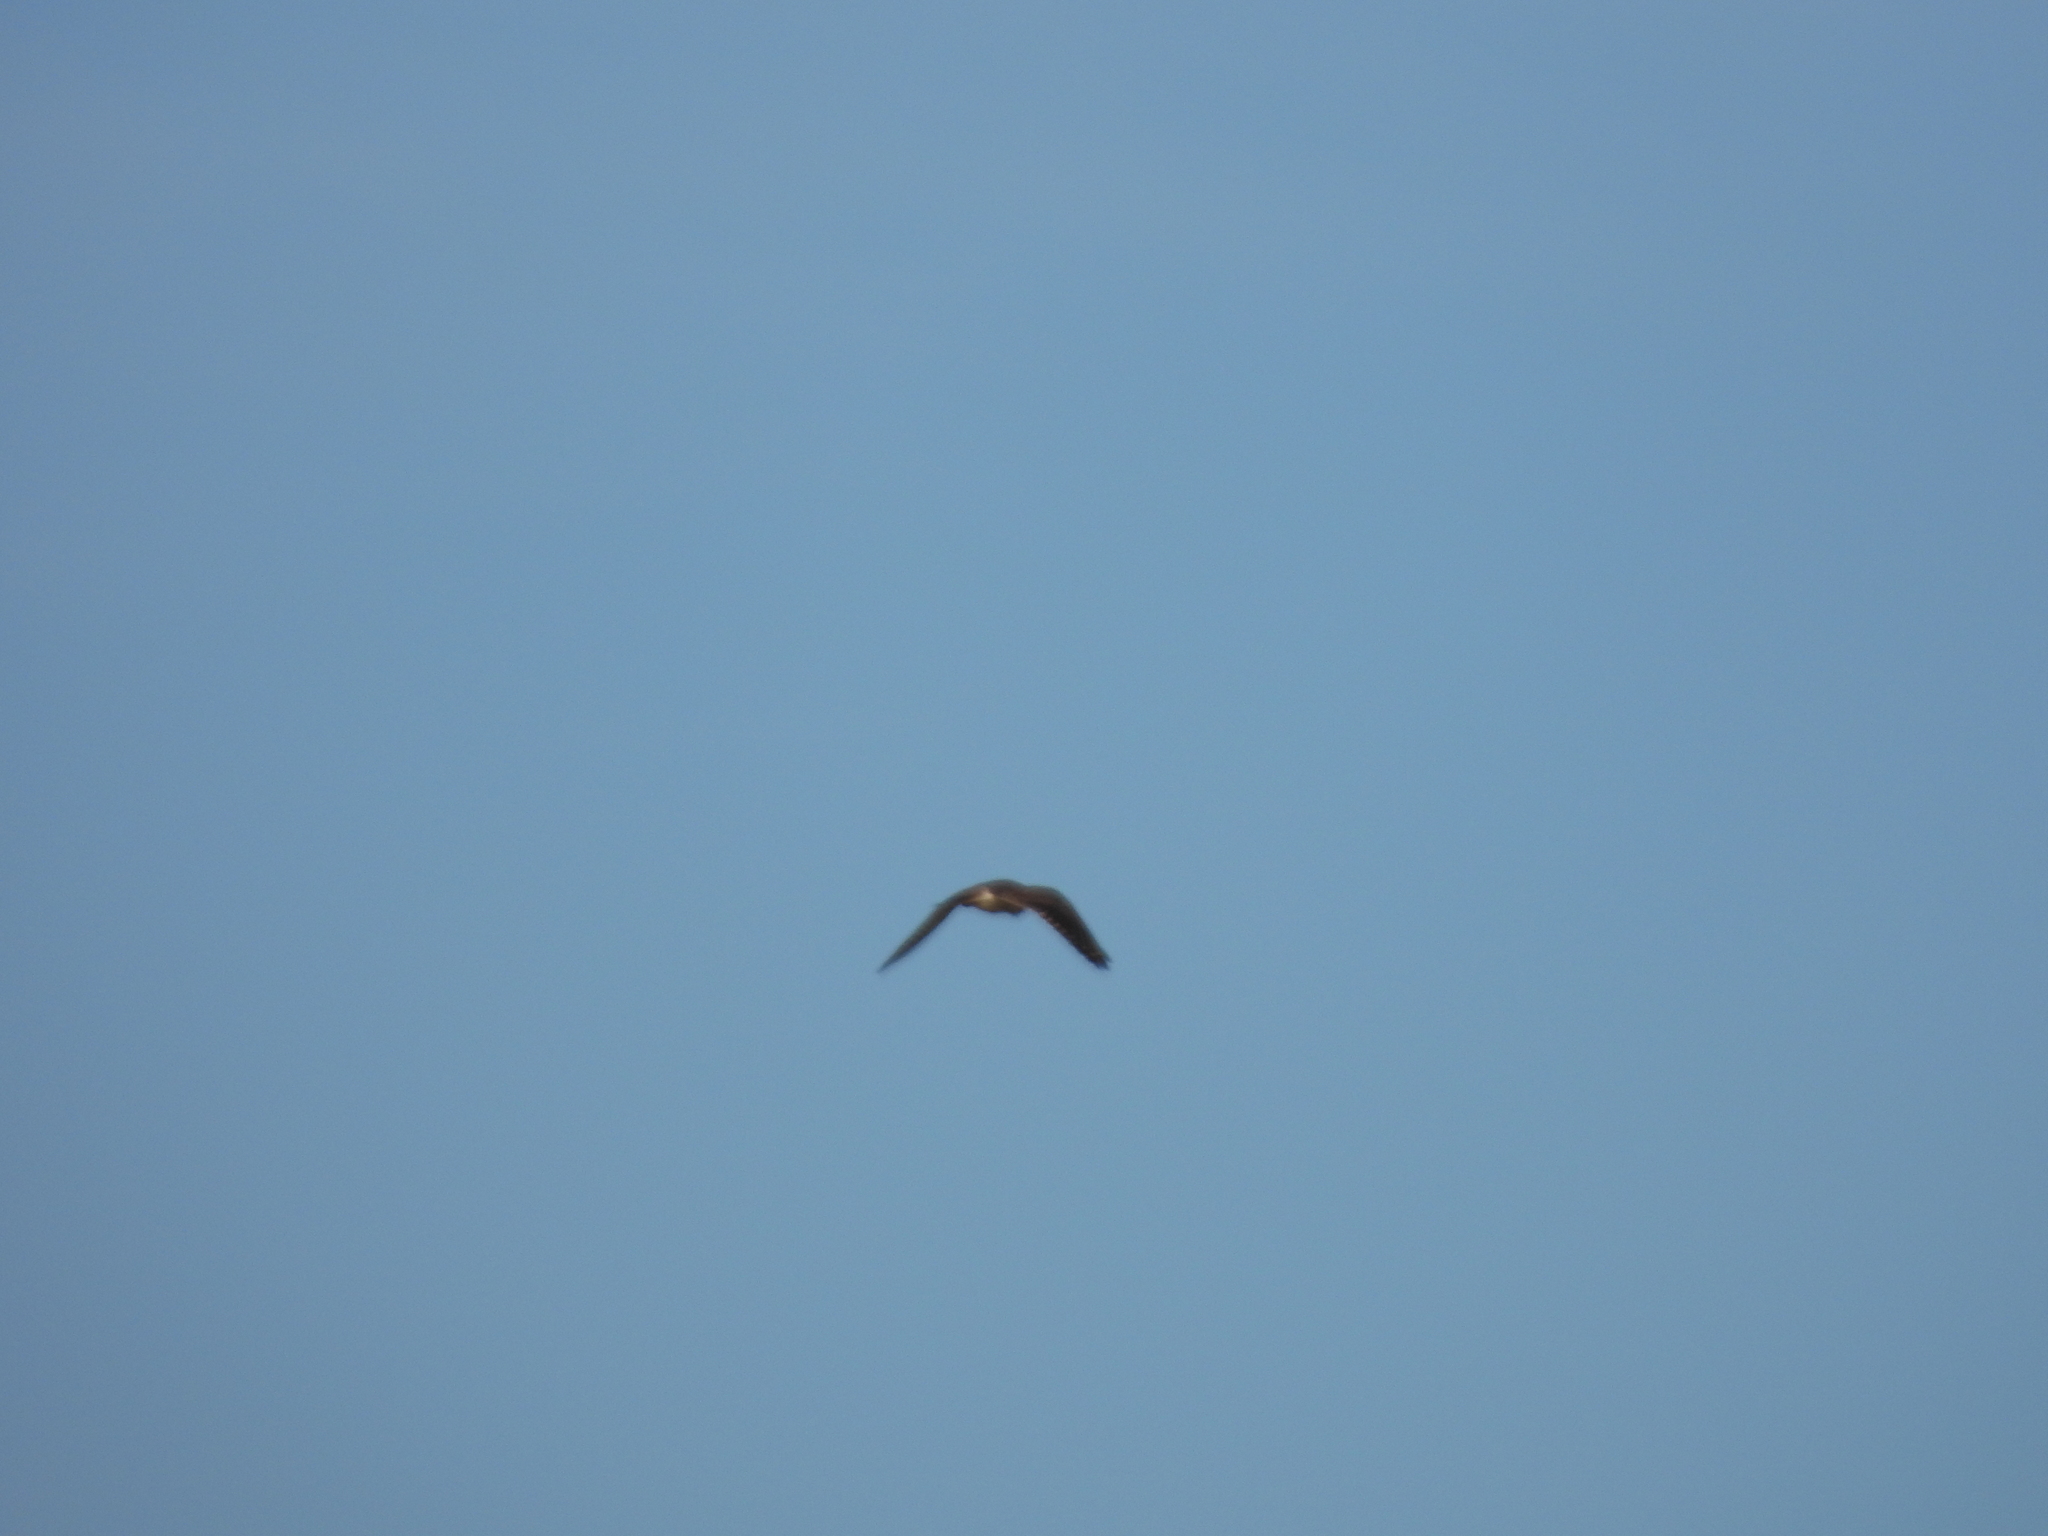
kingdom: Animalia
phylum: Chordata
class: Aves
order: Falconiformes
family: Falconidae
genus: Falco
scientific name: Falco sparverius
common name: American kestrel
